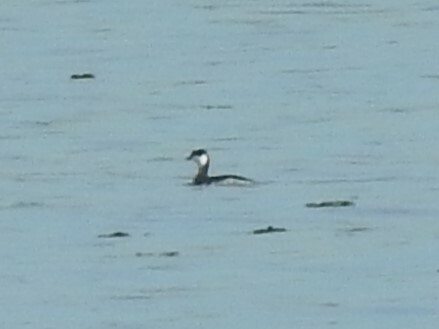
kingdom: Animalia
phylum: Chordata
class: Aves
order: Podicipediformes
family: Podicipedidae
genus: Podiceps
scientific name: Podiceps auritus
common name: Horned grebe
